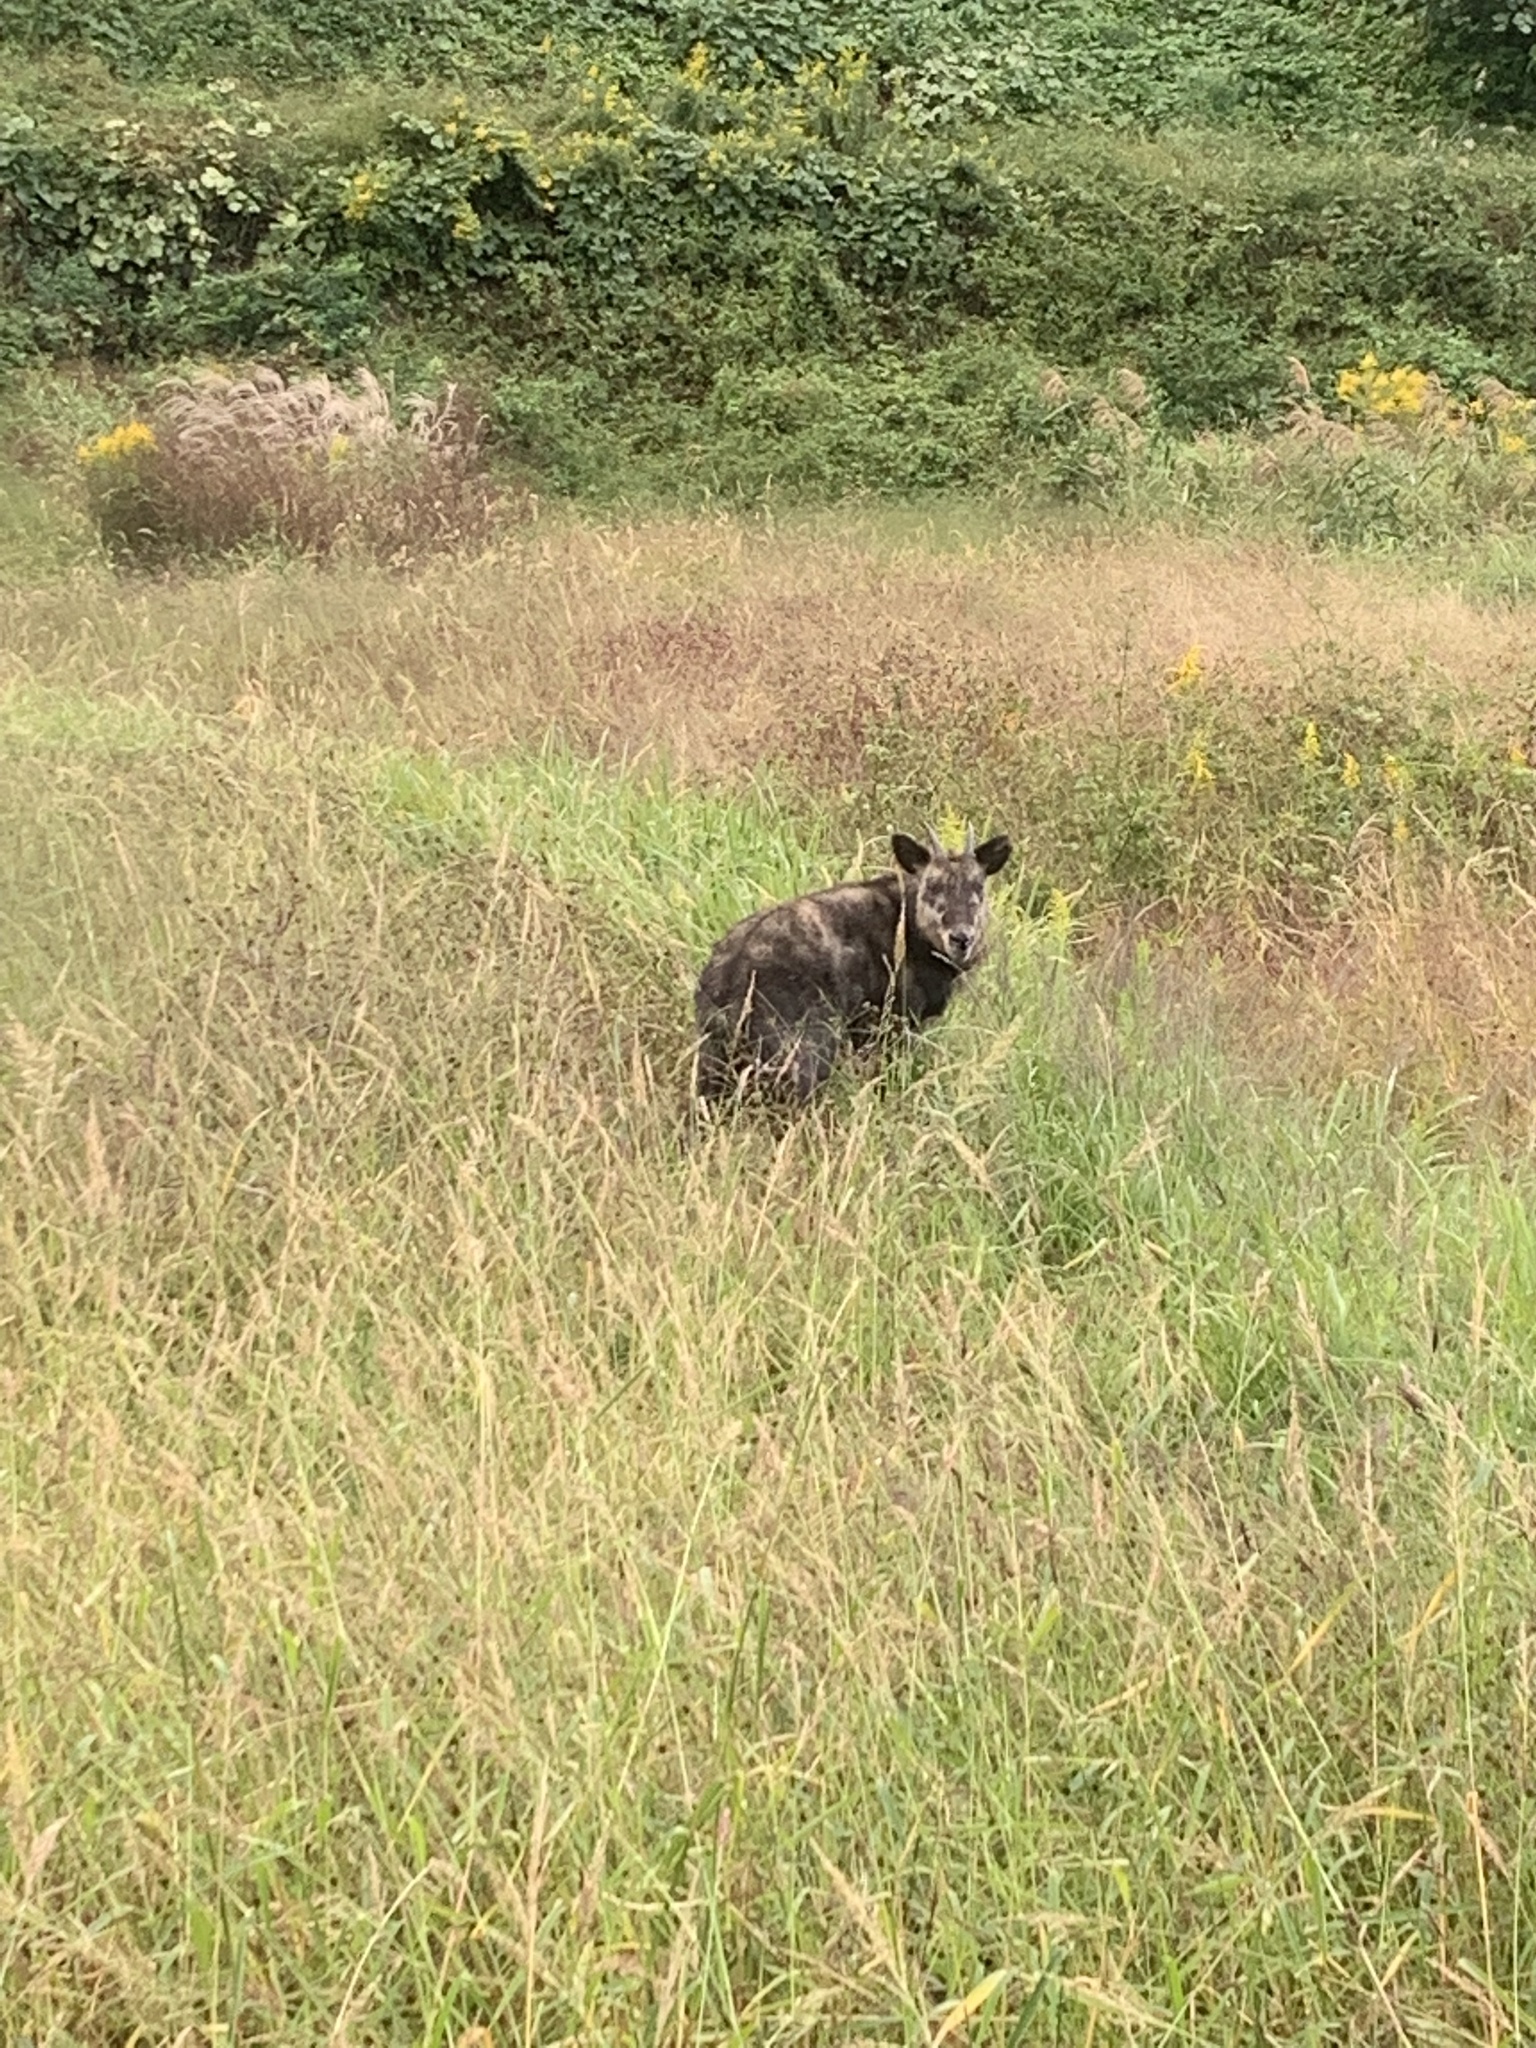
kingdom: Animalia
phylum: Chordata
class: Mammalia
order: Artiodactyla
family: Bovidae
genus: Capricornis
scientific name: Capricornis crispus
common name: Japanese serow
